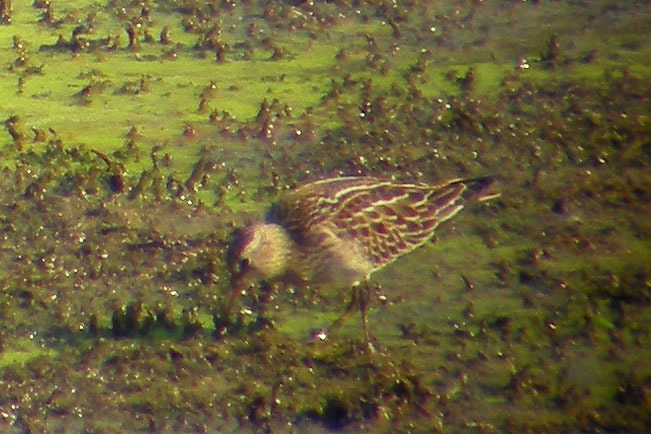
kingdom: Animalia
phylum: Chordata
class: Aves
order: Charadriiformes
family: Scolopacidae
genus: Calidris
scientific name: Calidris melanotos
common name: Pectoral sandpiper
